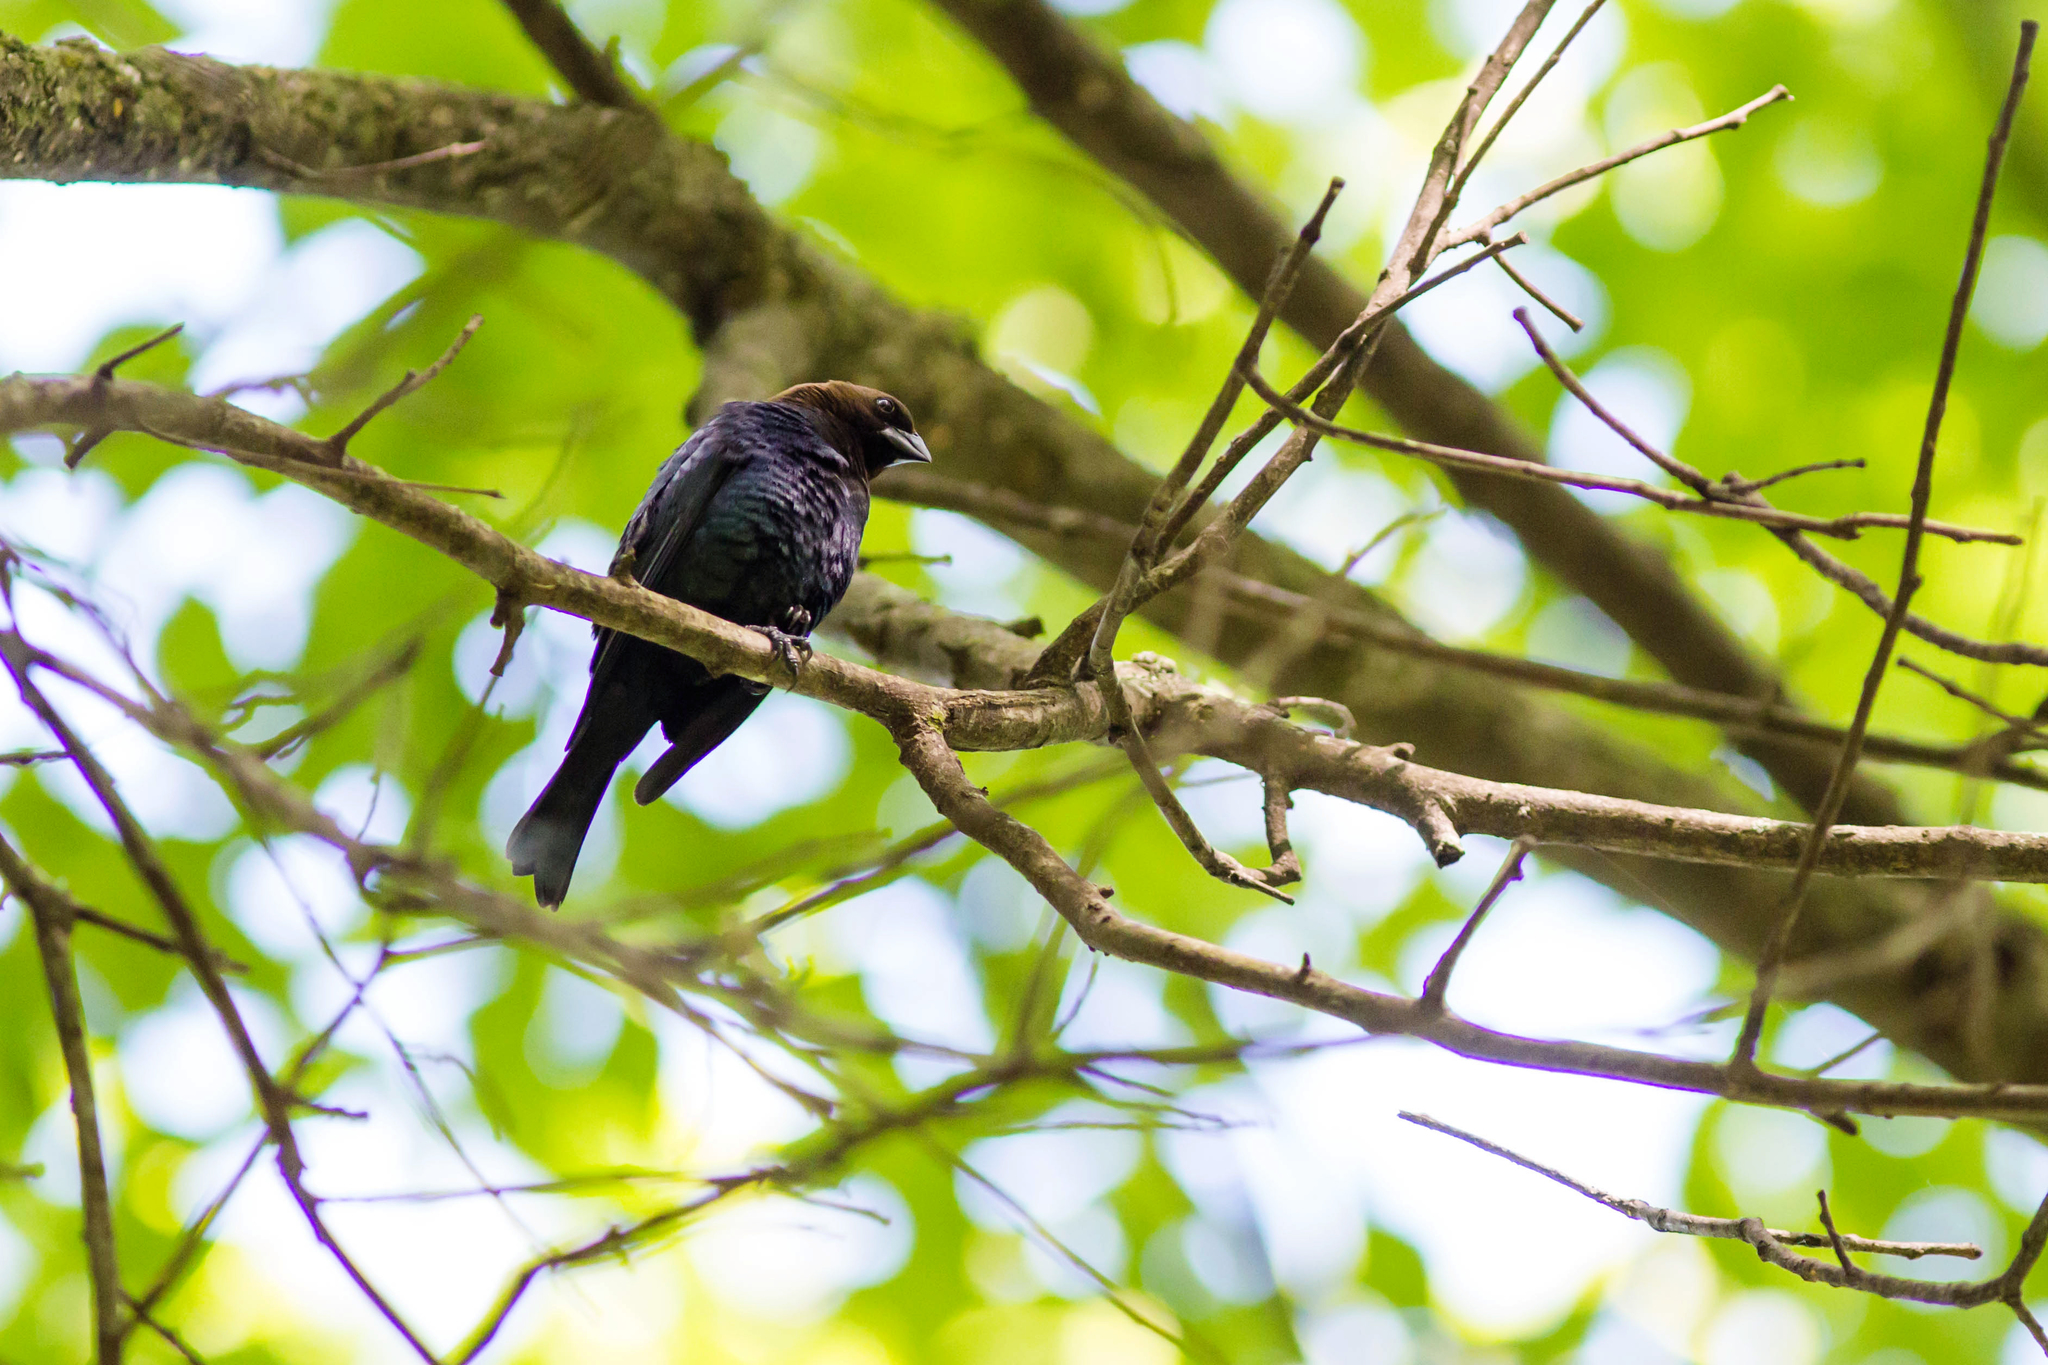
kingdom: Animalia
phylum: Chordata
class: Aves
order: Passeriformes
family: Icteridae
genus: Molothrus
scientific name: Molothrus ater
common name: Brown-headed cowbird
